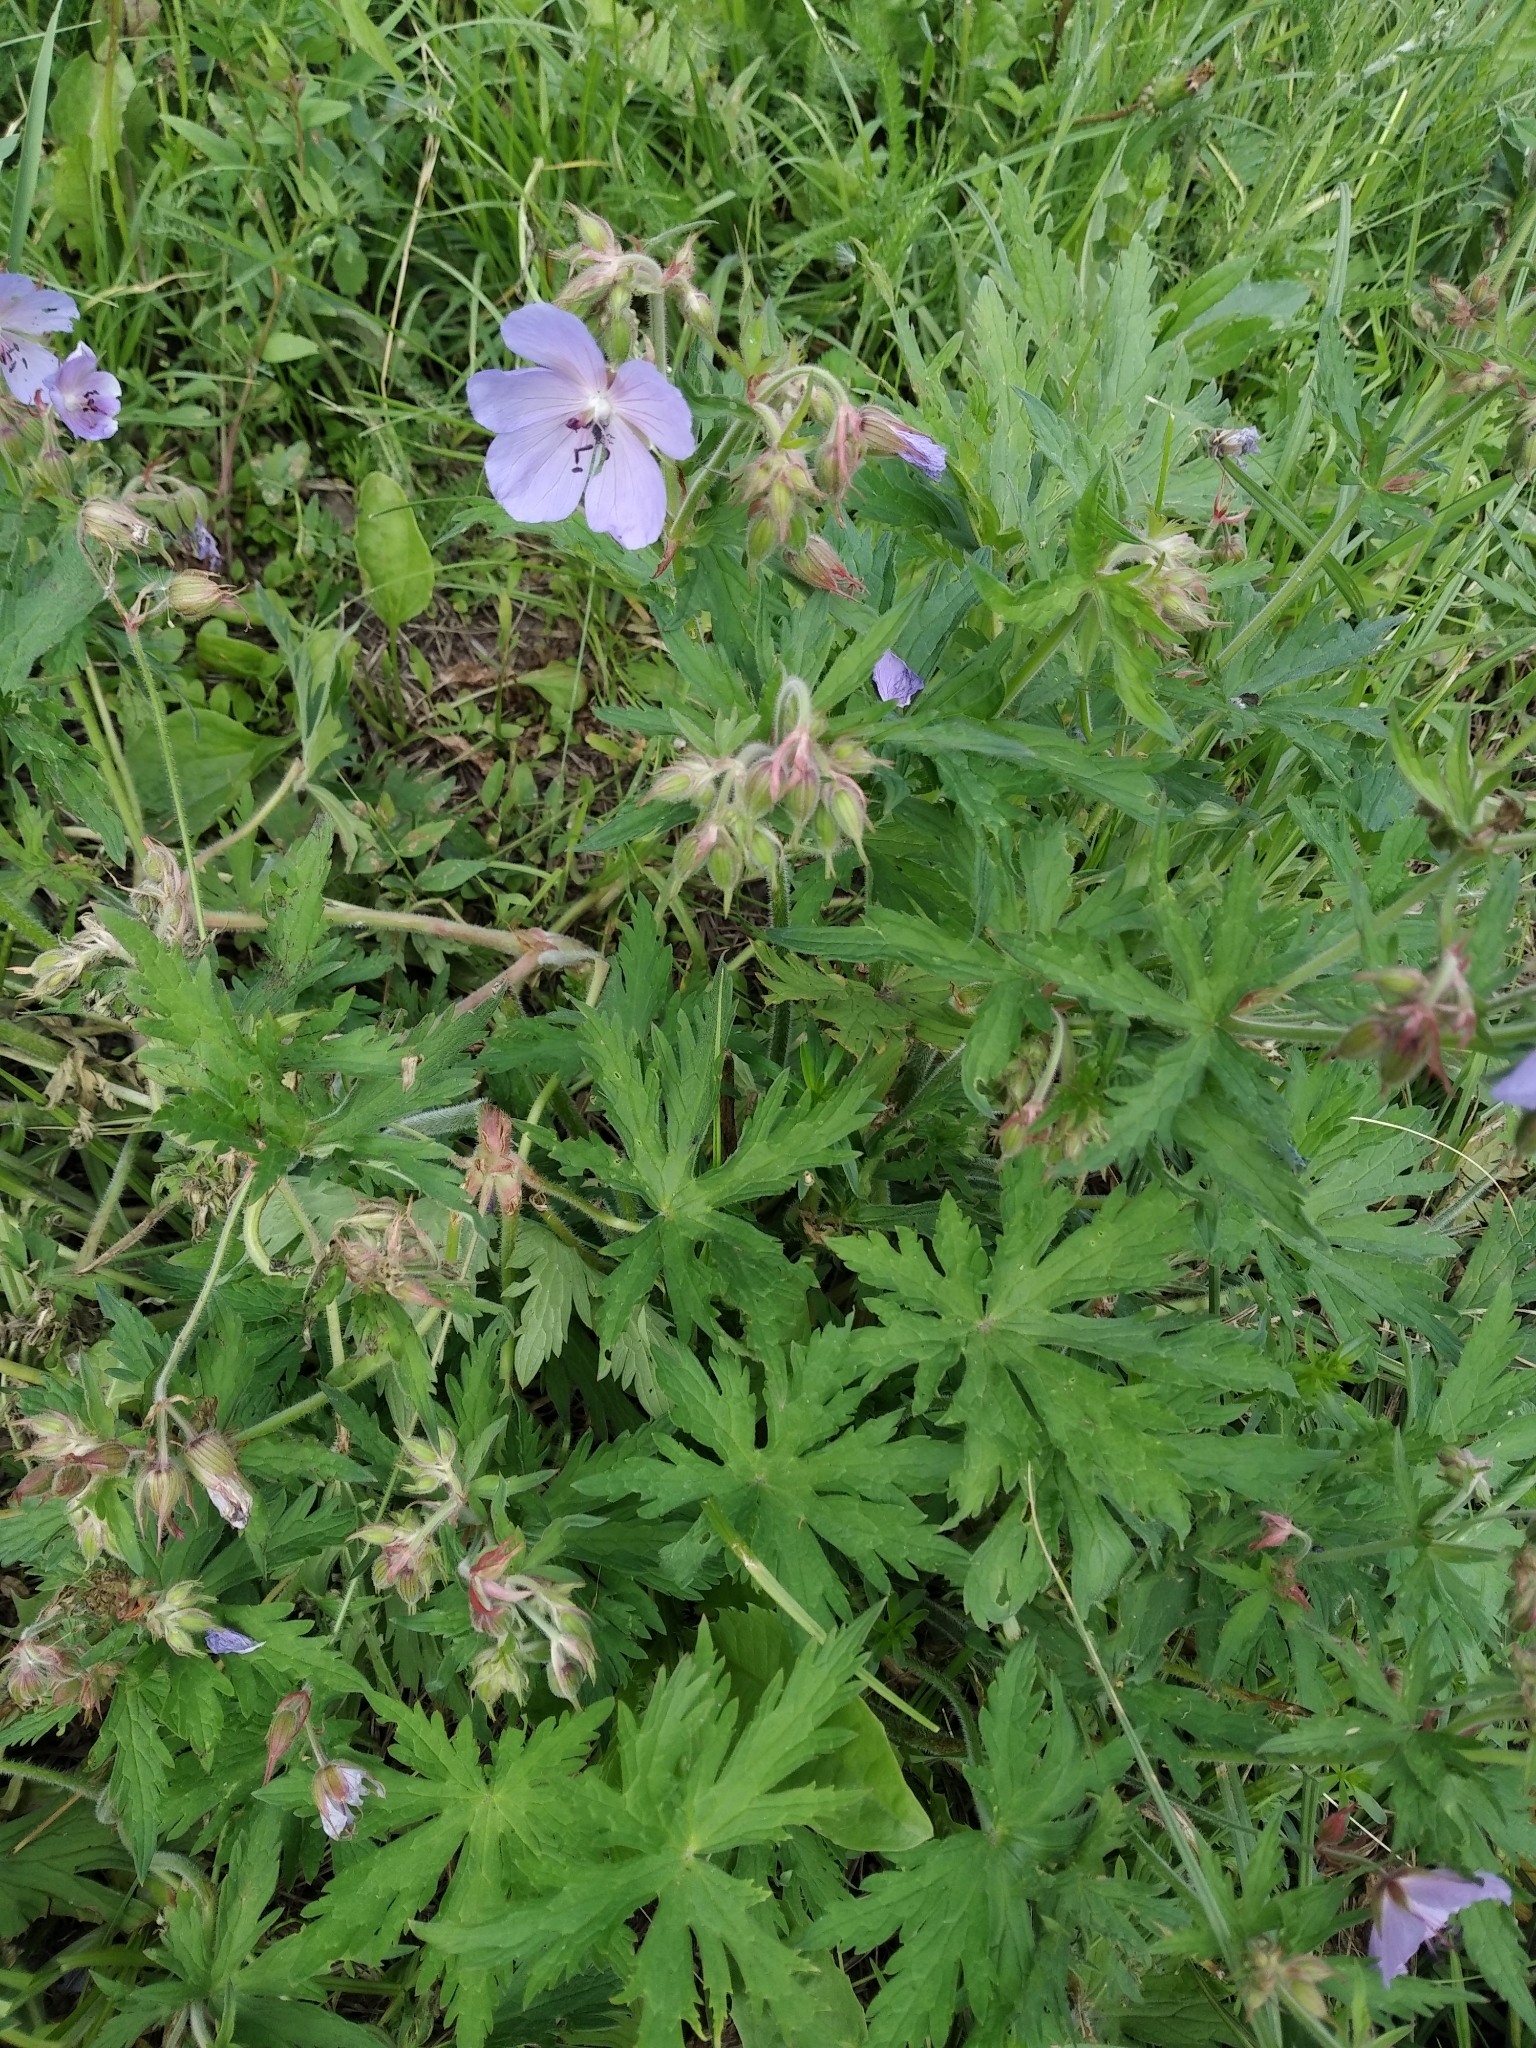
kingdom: Plantae
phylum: Tracheophyta
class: Magnoliopsida
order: Geraniales
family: Geraniaceae
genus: Geranium
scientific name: Geranium pratense
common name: Meadow crane's-bill
